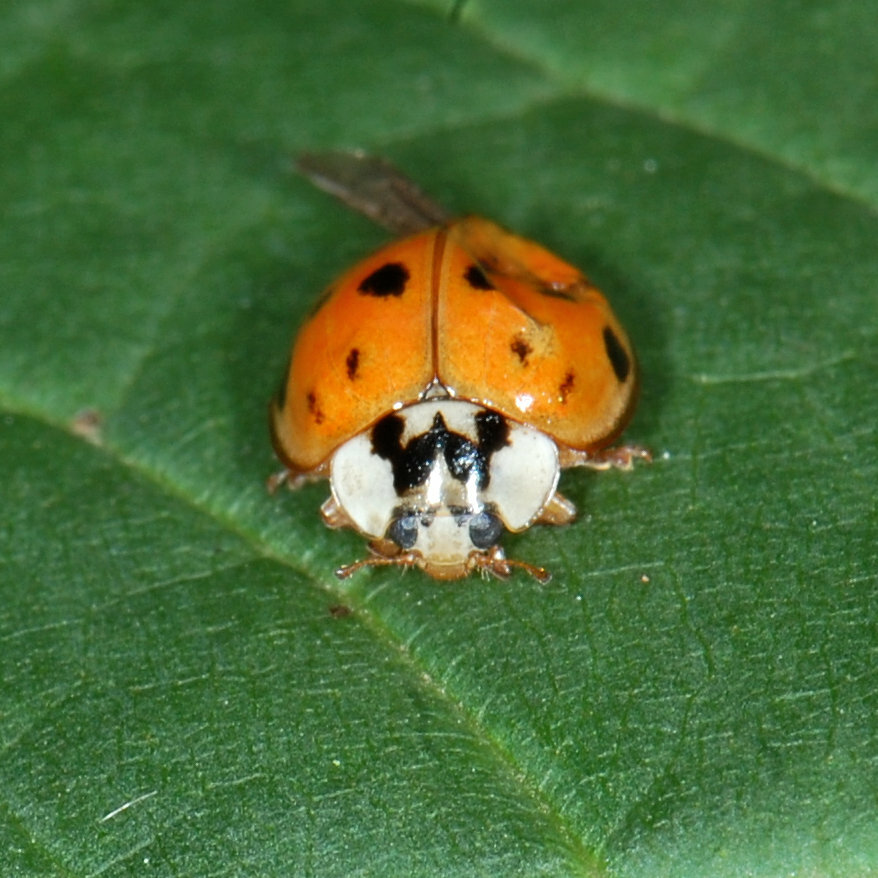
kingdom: Animalia
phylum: Arthropoda
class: Insecta
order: Coleoptera
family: Coccinellidae
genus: Harmonia
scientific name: Harmonia axyridis
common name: Harlequin ladybird
